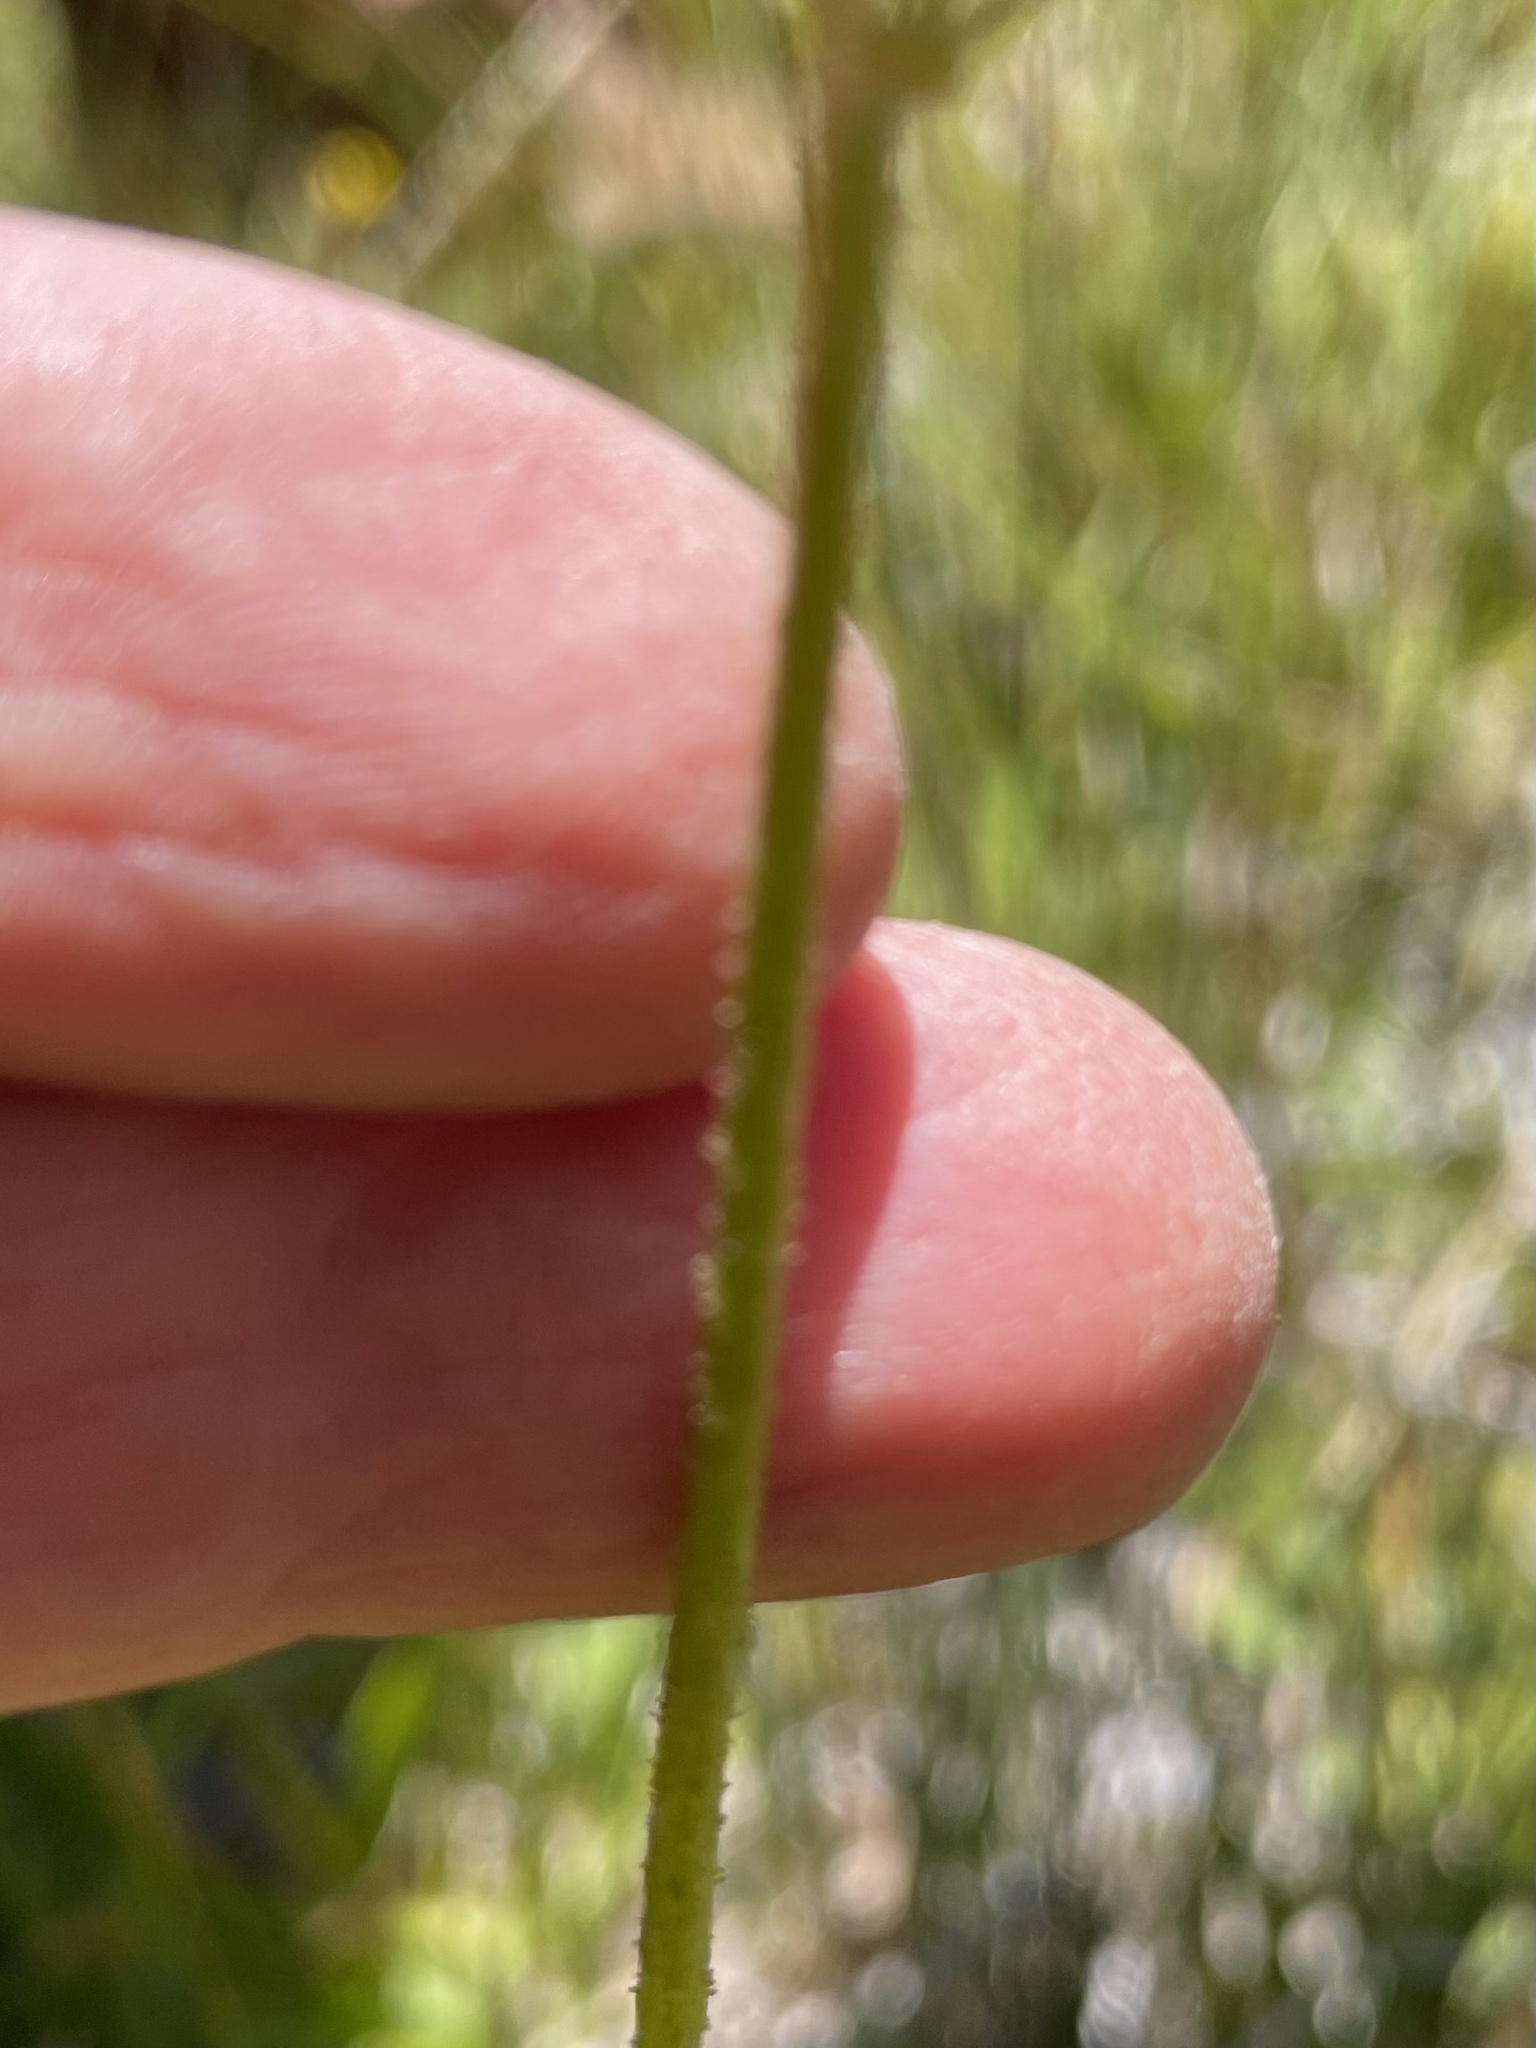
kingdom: Plantae
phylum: Tracheophyta
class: Liliopsida
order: Alismatales
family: Tofieldiaceae
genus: Triantha
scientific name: Triantha occidentalis
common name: Western false asphodel
